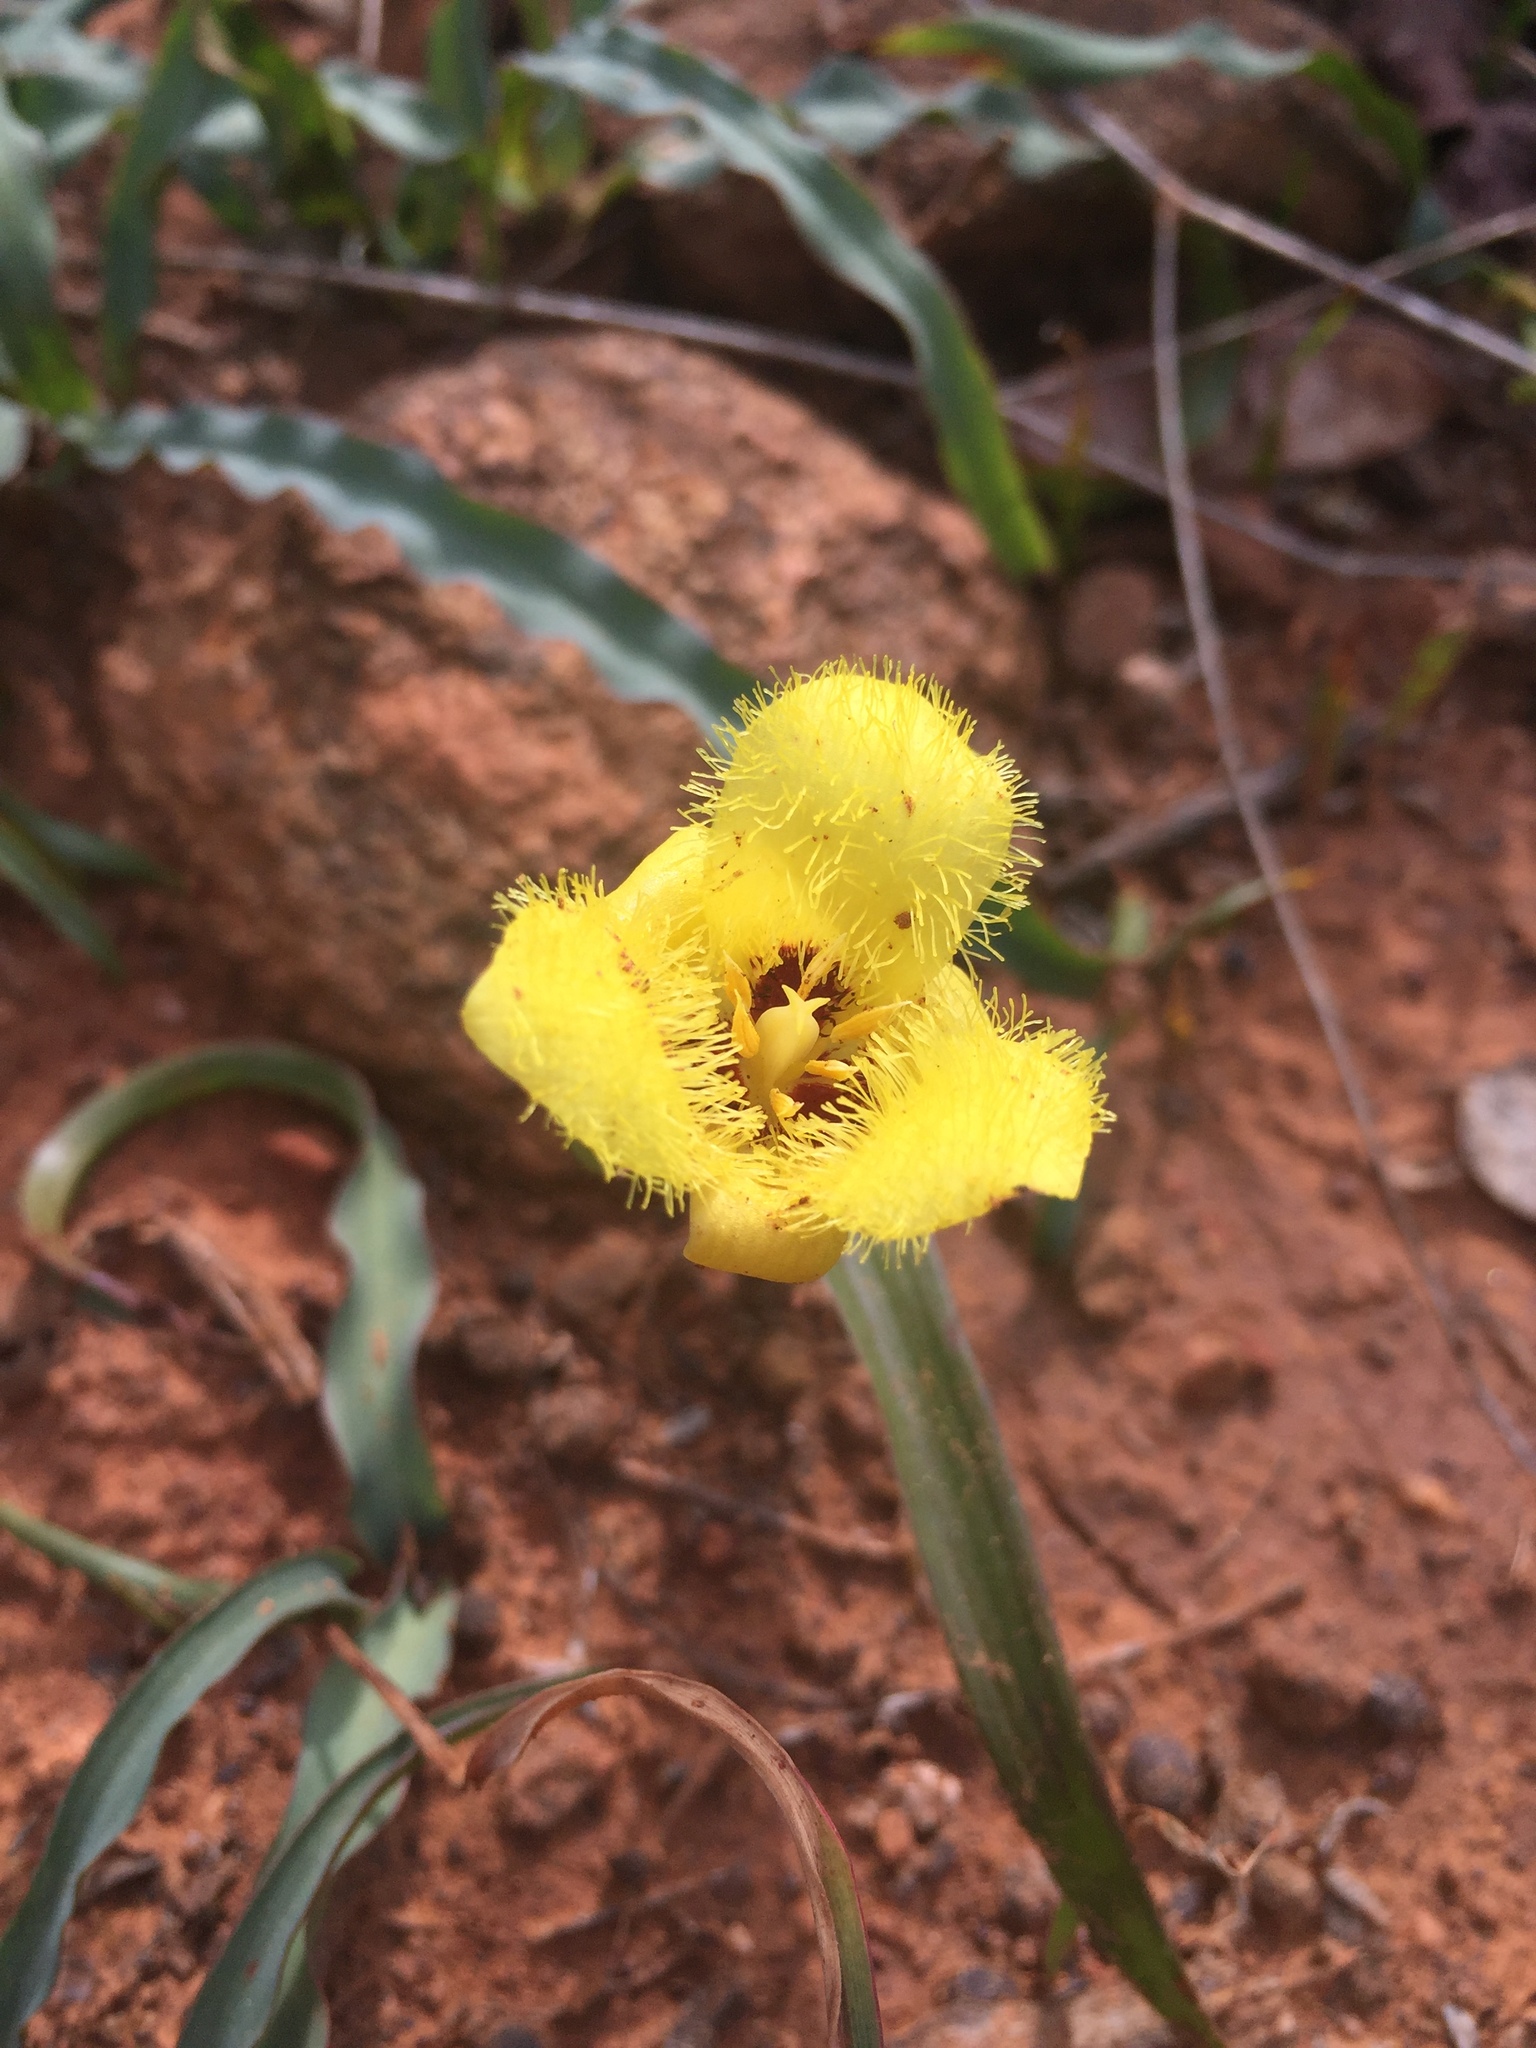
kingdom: Plantae
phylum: Tracheophyta
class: Liliopsida
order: Liliales
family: Liliaceae
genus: Calochortus
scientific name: Calochortus monophyllus
